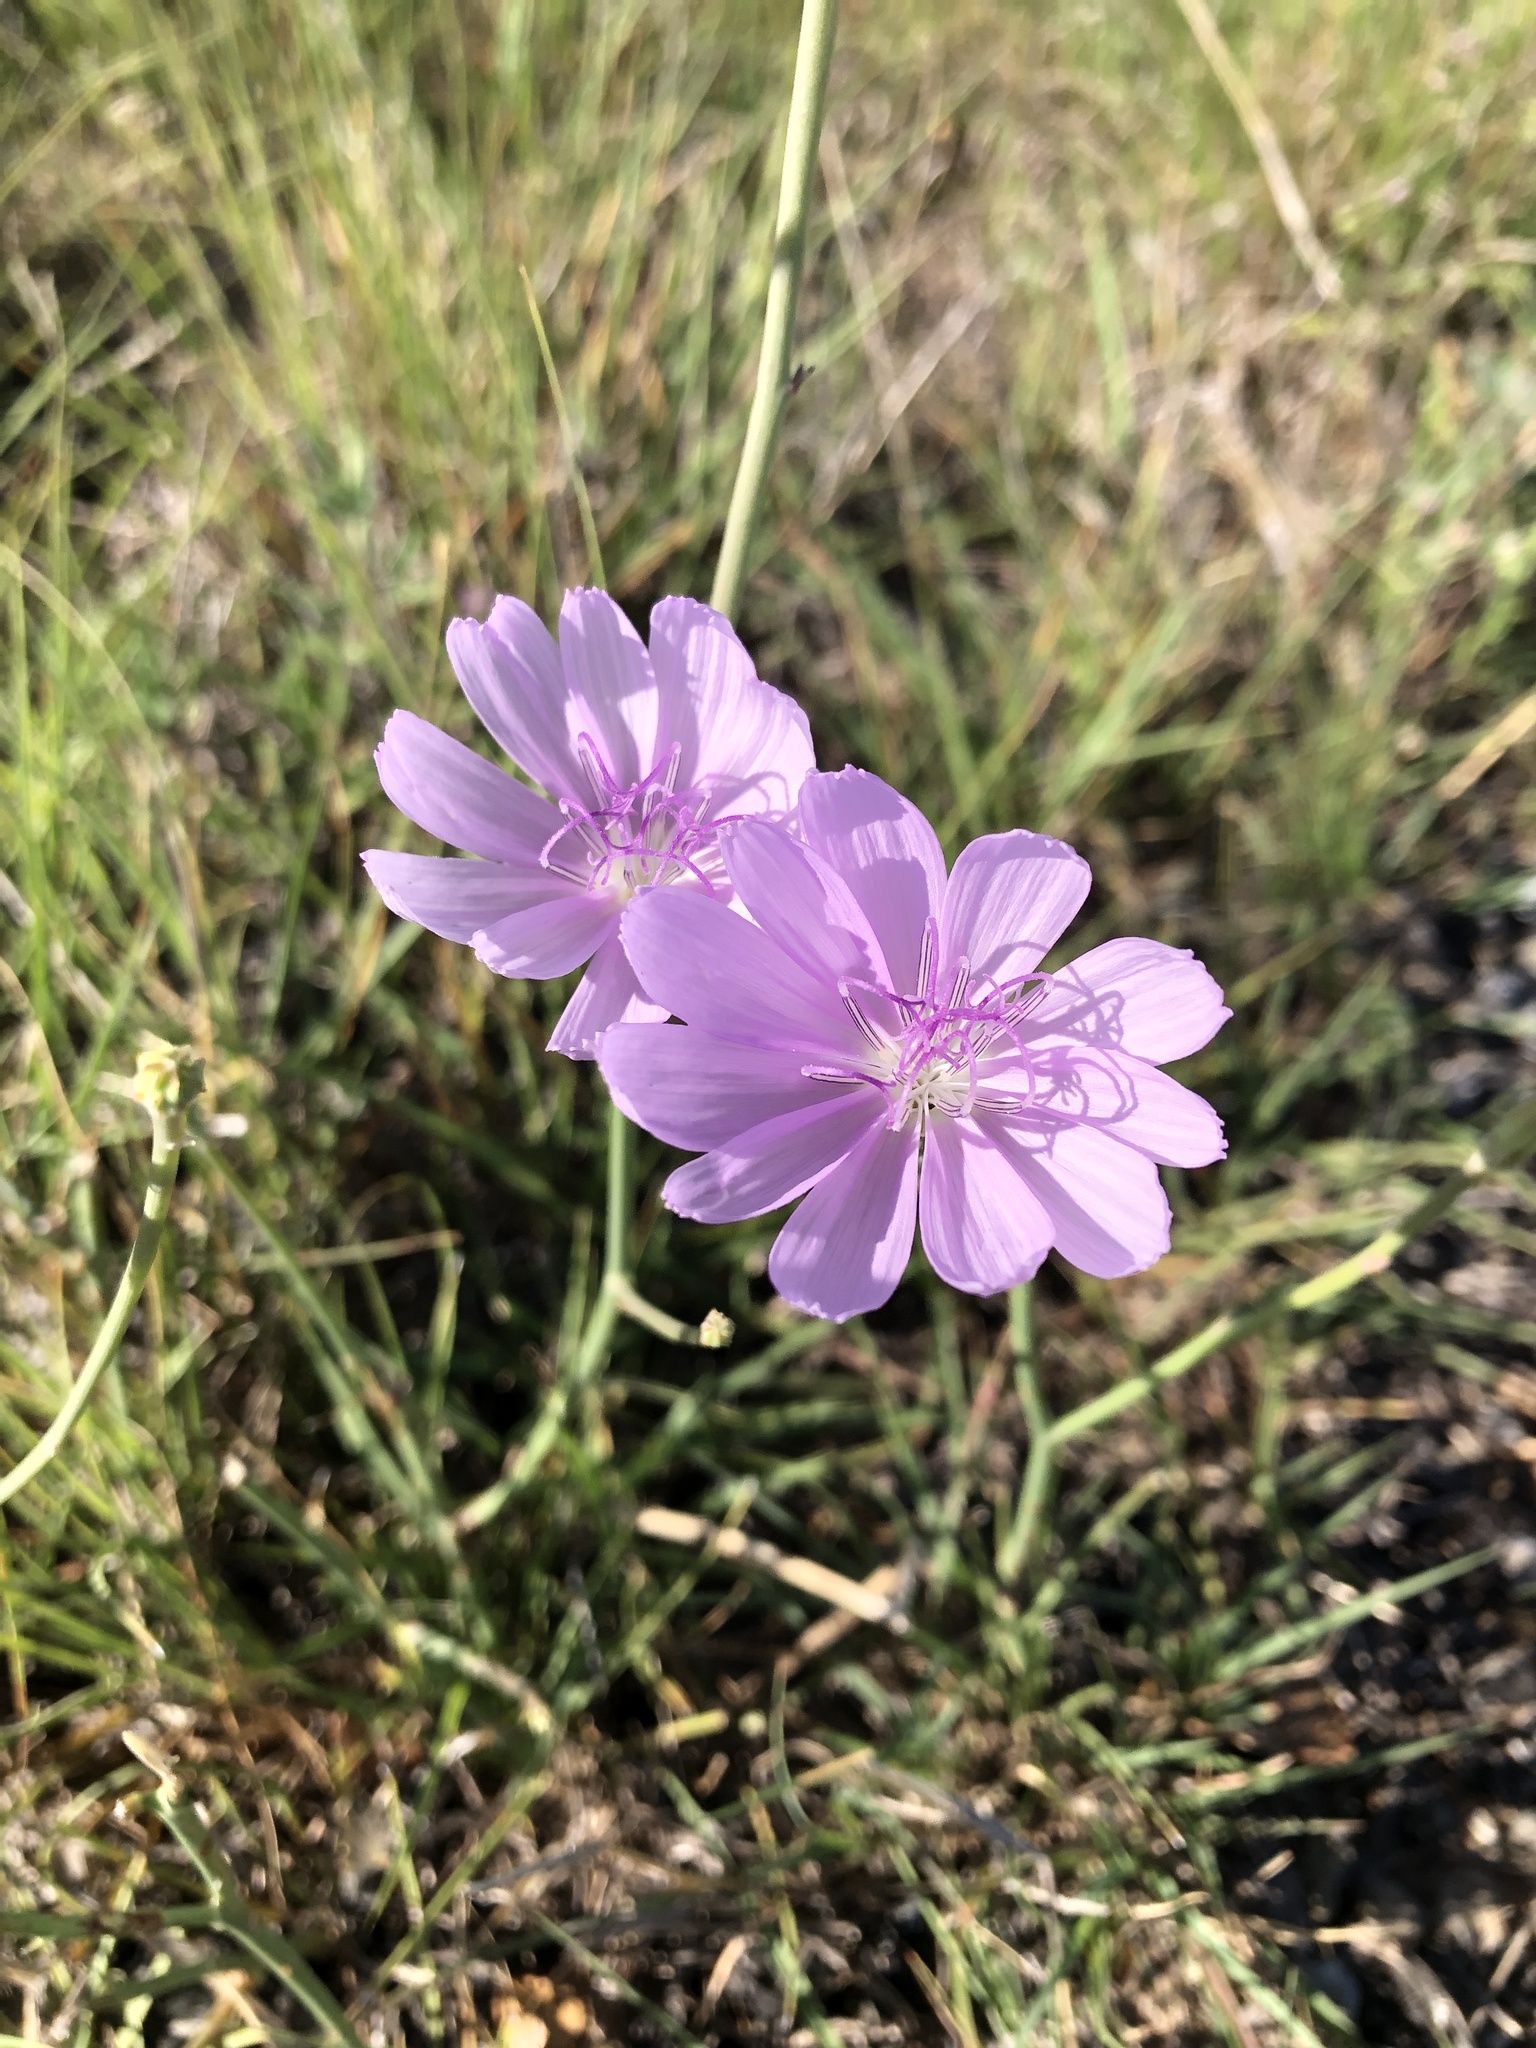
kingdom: Plantae
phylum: Tracheophyta
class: Magnoliopsida
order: Asterales
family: Asteraceae
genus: Lygodesmia
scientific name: Lygodesmia texana
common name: Texas skeleton-plant
